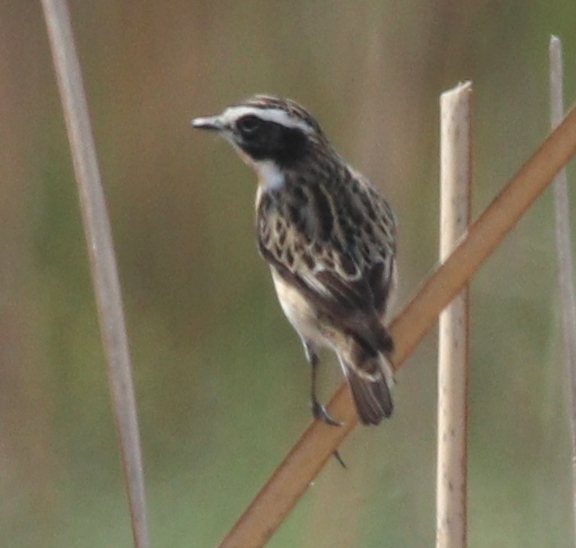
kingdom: Animalia
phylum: Chordata
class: Aves
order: Passeriformes
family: Muscicapidae
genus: Saxicola
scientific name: Saxicola rubetra
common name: Whinchat
